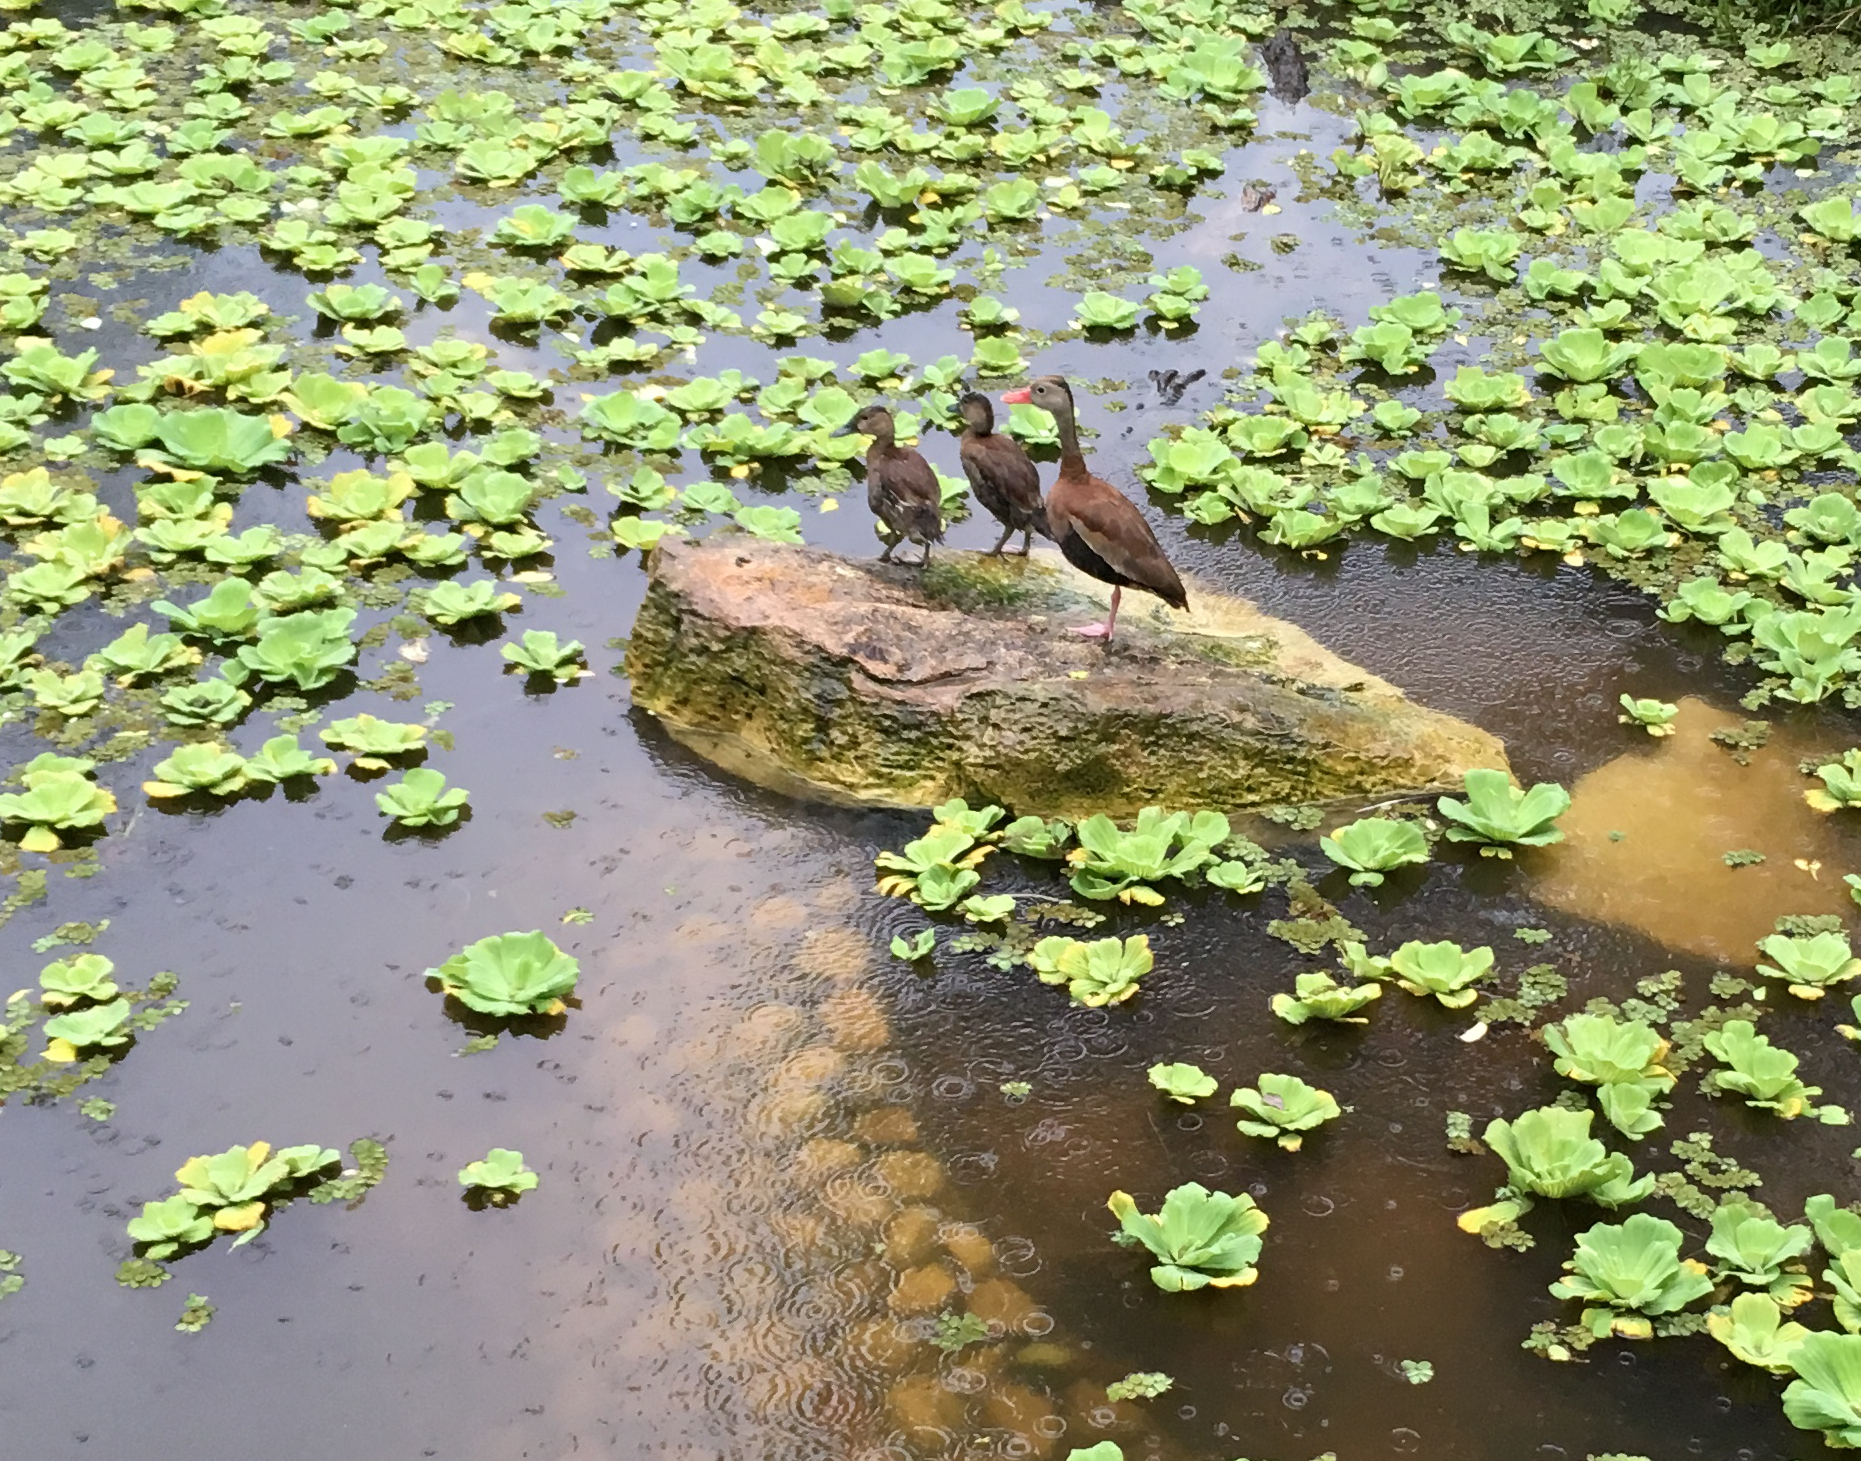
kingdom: Plantae
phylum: Tracheophyta
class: Liliopsida
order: Alismatales
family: Araceae
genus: Pistia
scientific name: Pistia stratiotes
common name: Water lettuce
